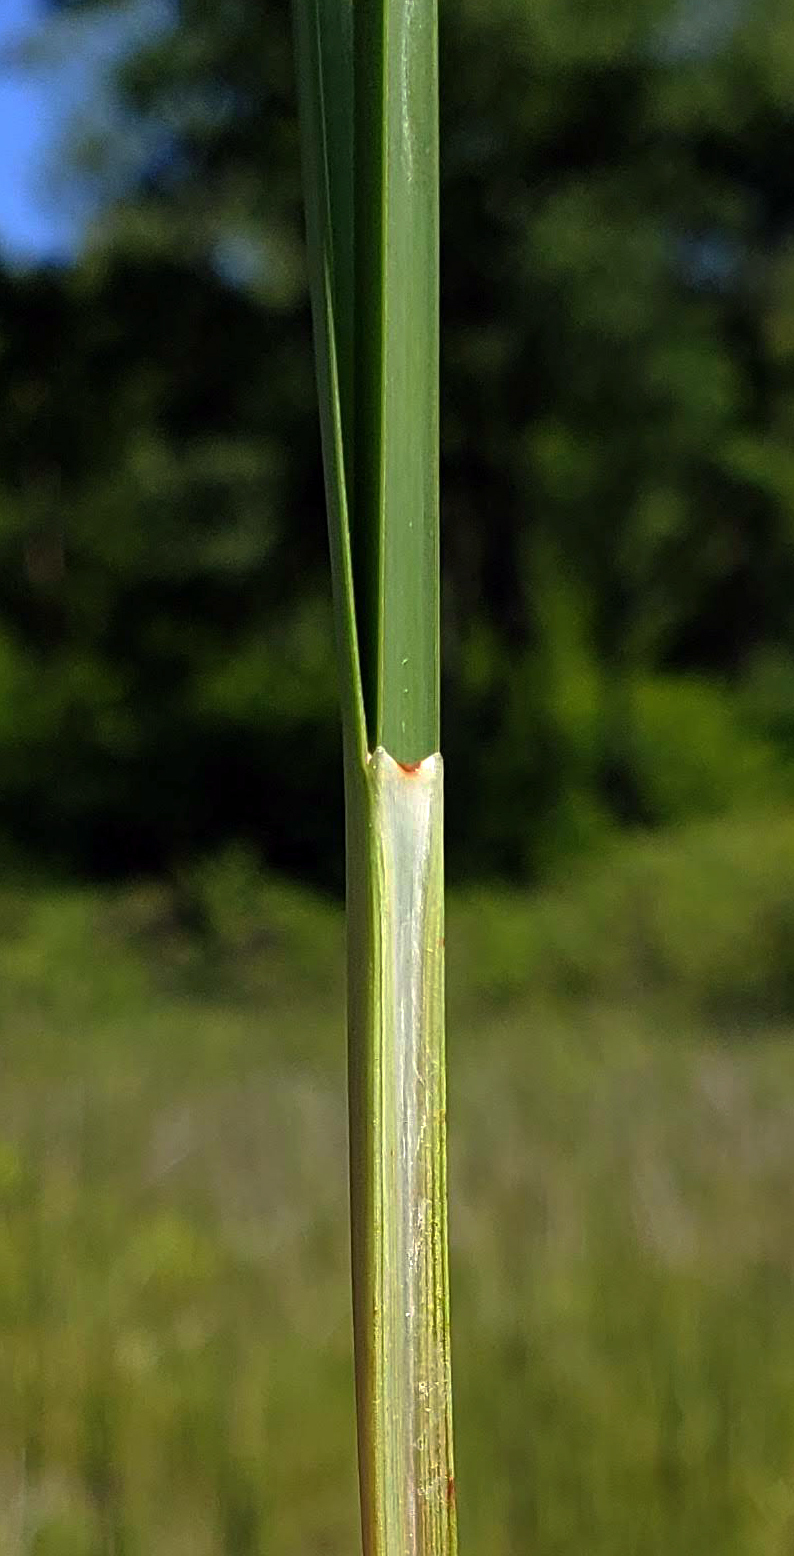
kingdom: Plantae
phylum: Tracheophyta
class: Liliopsida
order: Poales
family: Cyperaceae
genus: Schoenoplectus
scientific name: Schoenoplectus pungens
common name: Sharp club-rush
